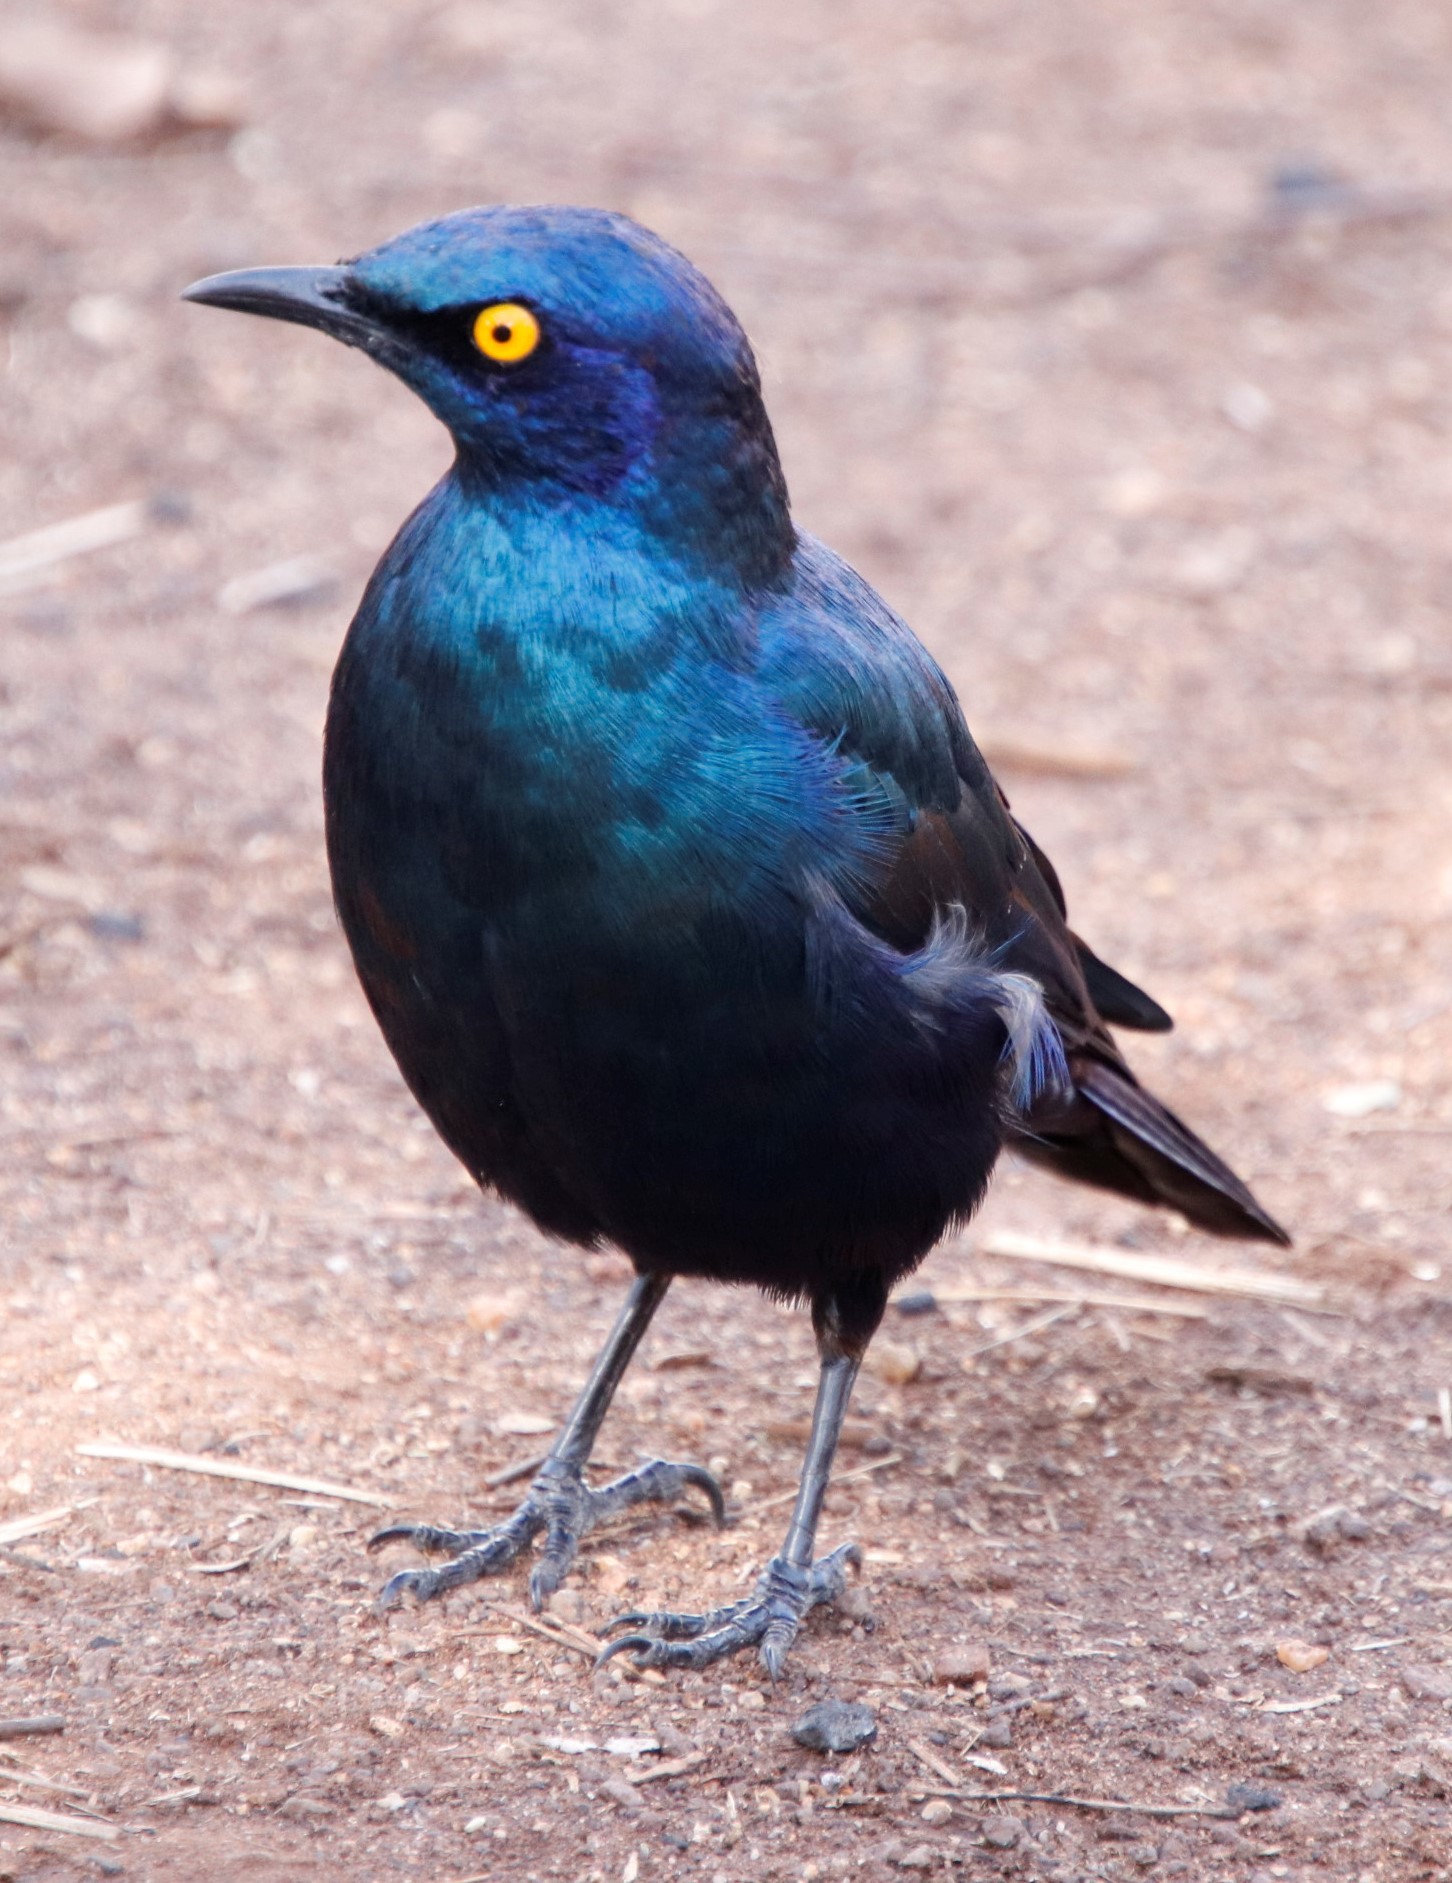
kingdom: Animalia
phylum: Chordata
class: Aves
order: Passeriformes
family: Sturnidae
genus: Lamprotornis
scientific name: Lamprotornis nitens
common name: Cape starling
